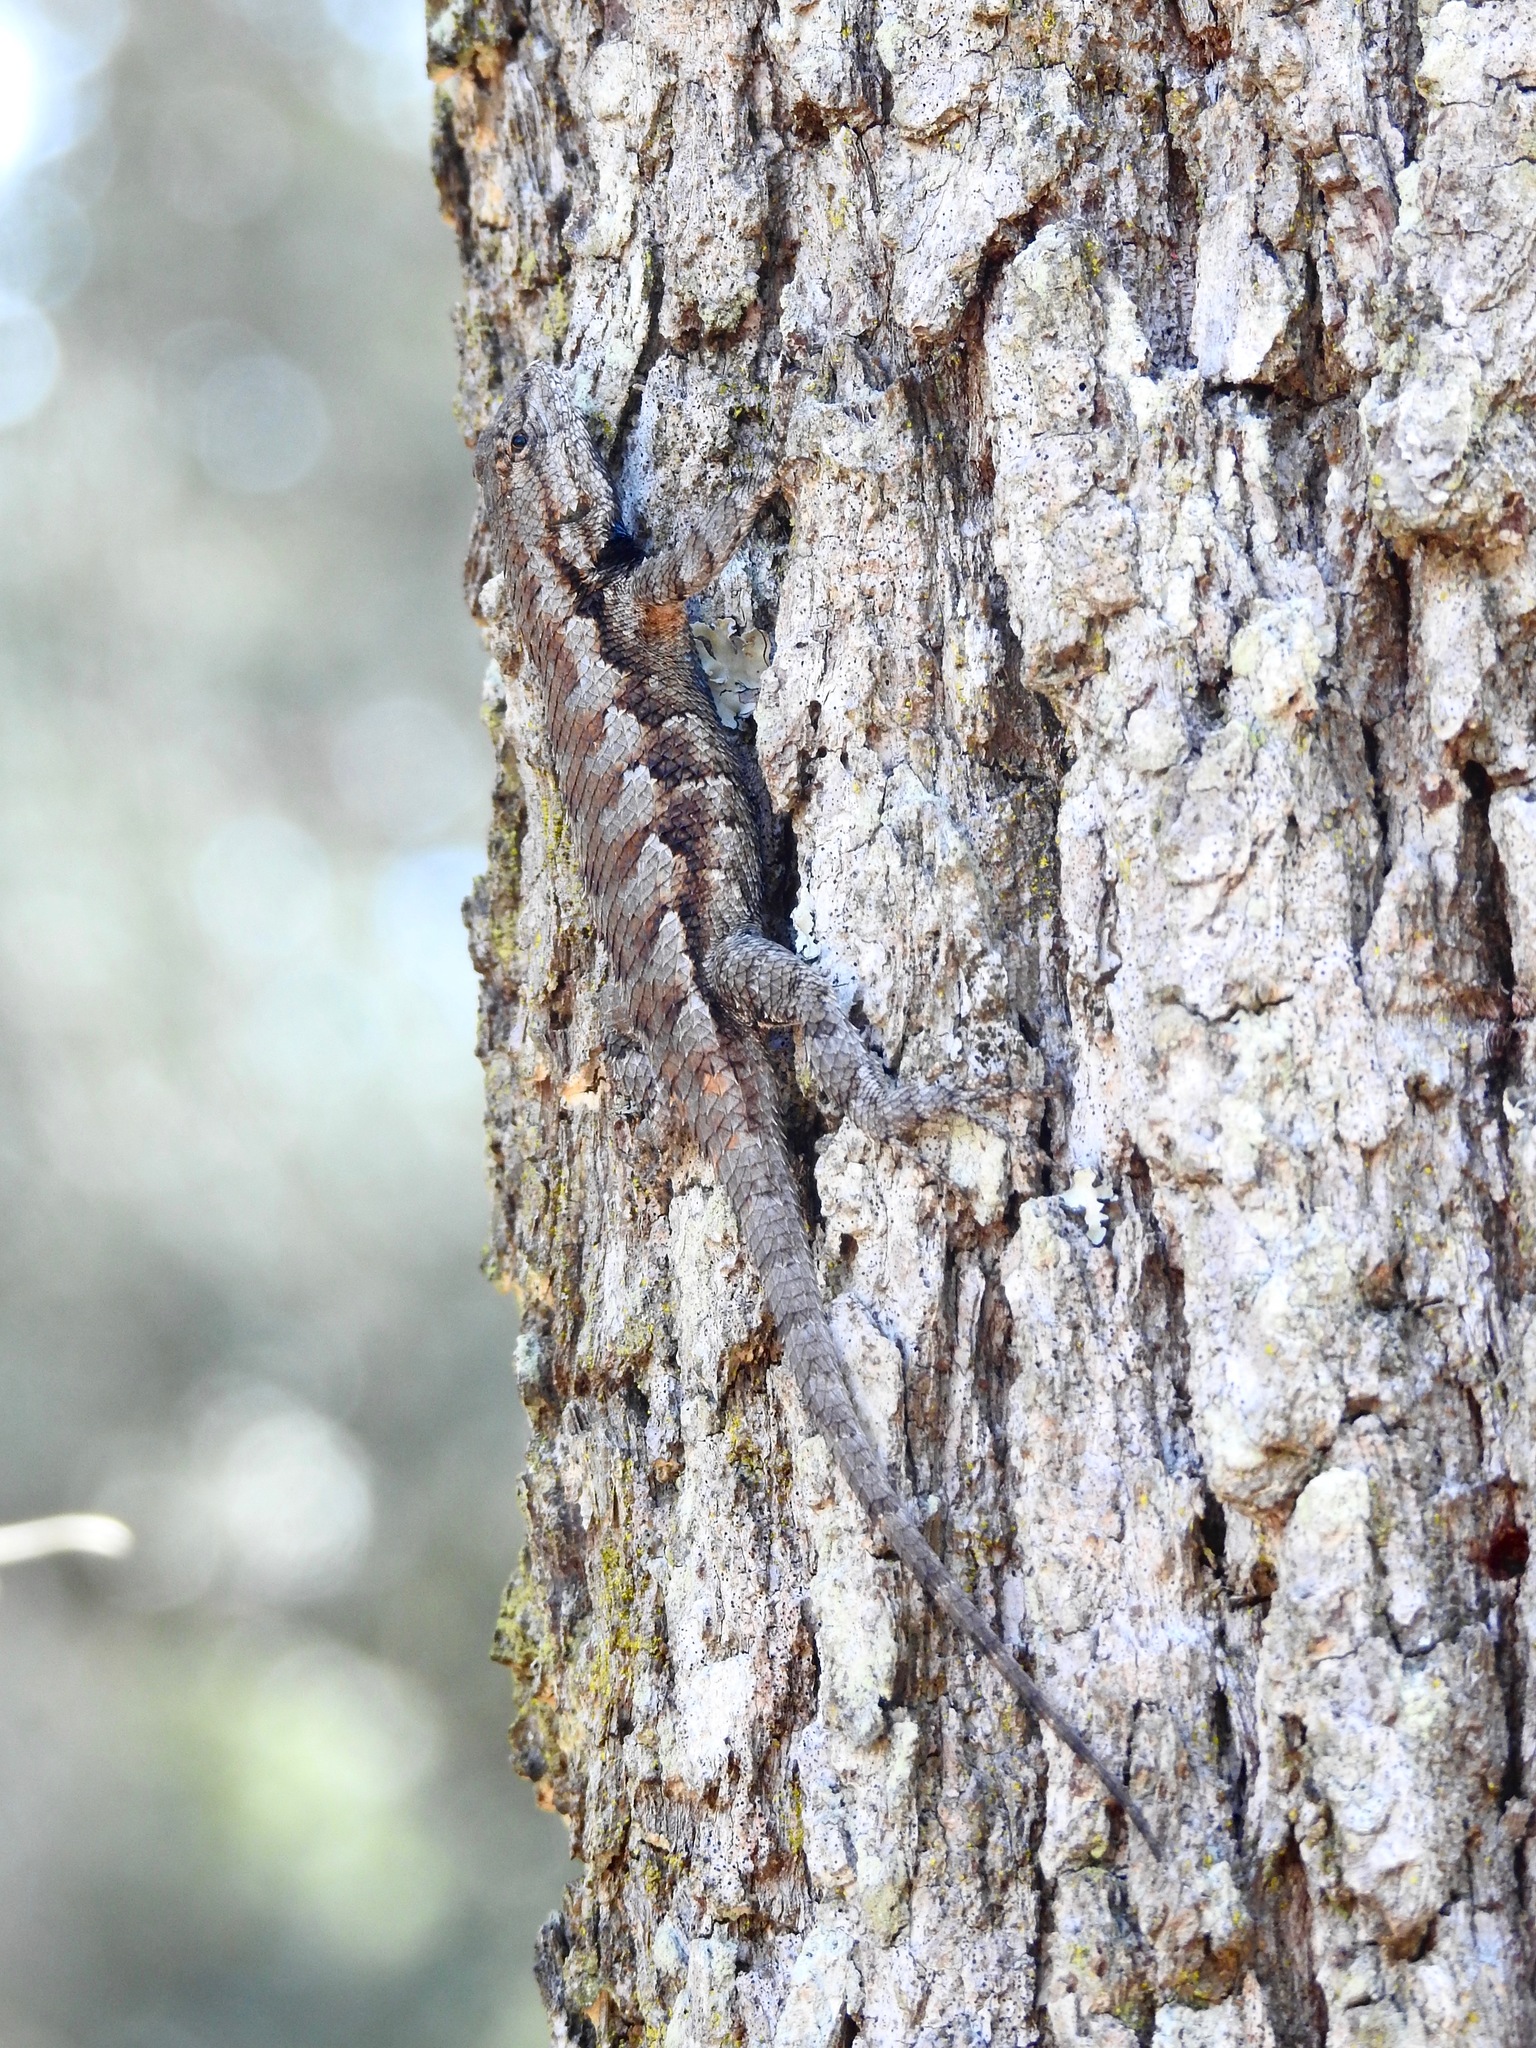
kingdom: Animalia
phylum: Chordata
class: Squamata
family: Phrynosomatidae
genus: Sceloporus
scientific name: Sceloporus undulatus
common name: Eastern fence lizard
